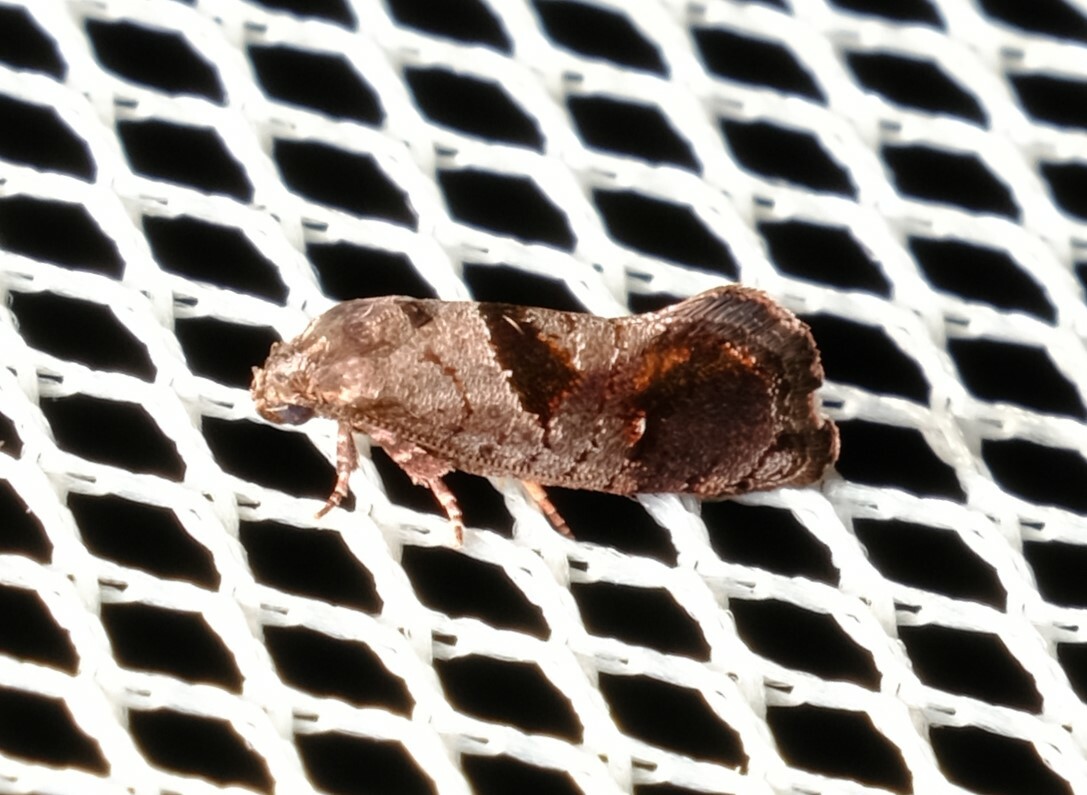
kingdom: Animalia
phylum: Arthropoda
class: Insecta
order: Lepidoptera
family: Depressariidae
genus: Eupselia
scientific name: Eupselia holoxantha
